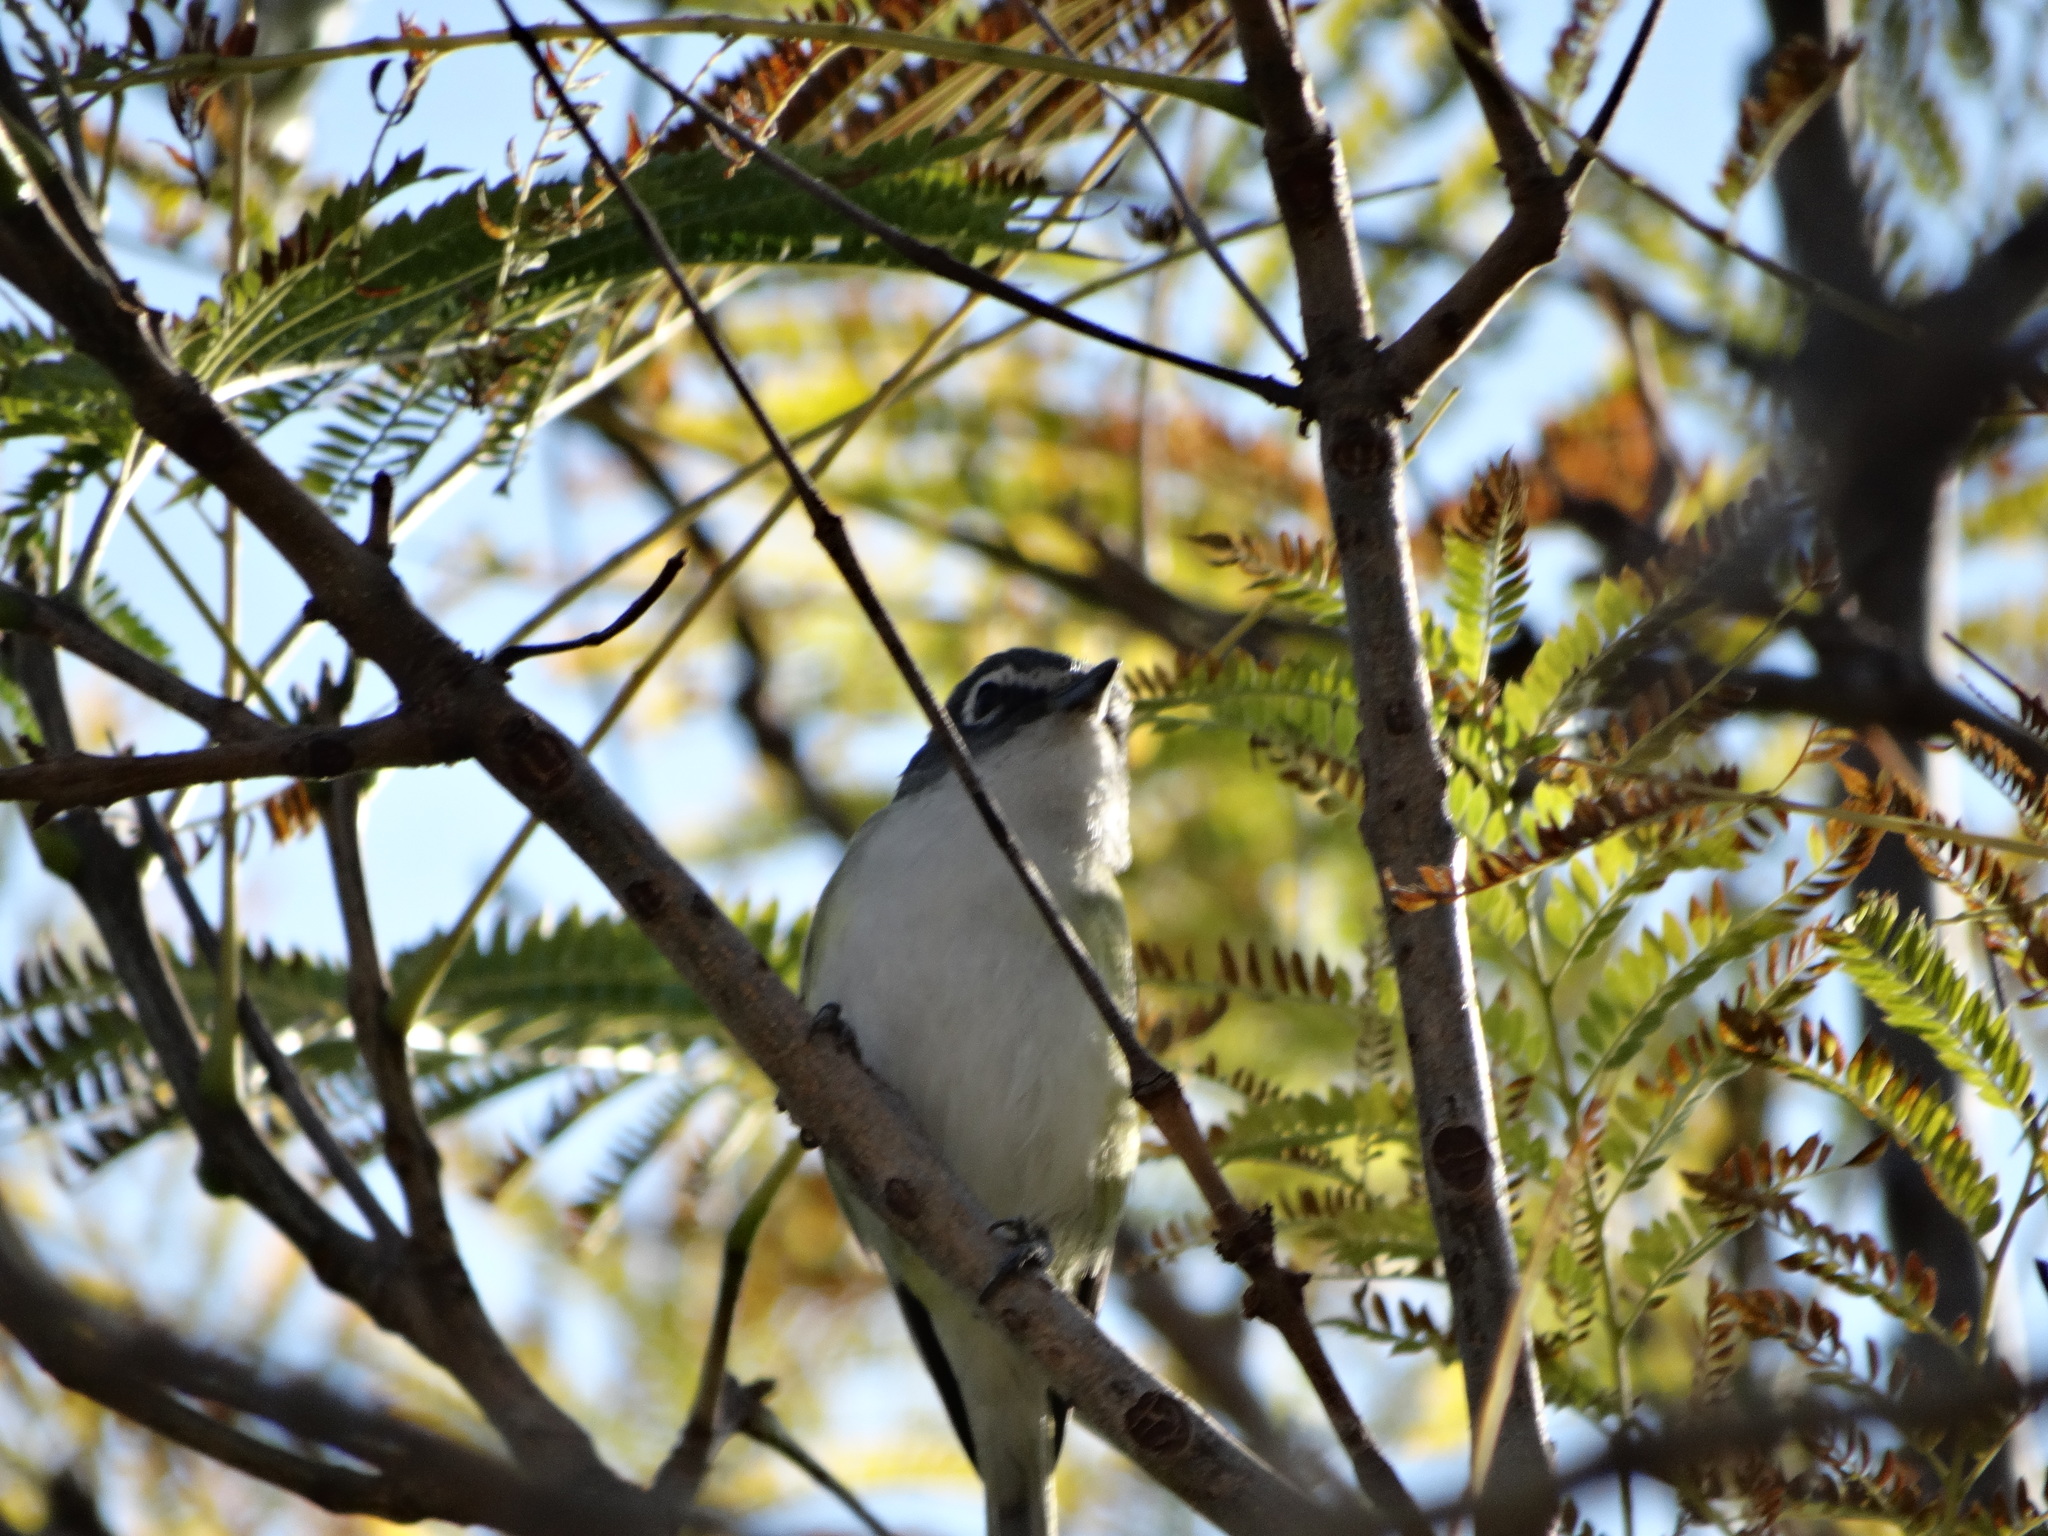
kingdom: Animalia
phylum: Chordata
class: Aves
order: Passeriformes
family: Vireonidae
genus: Vireo
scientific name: Vireo solitarius
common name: Blue-headed vireo
